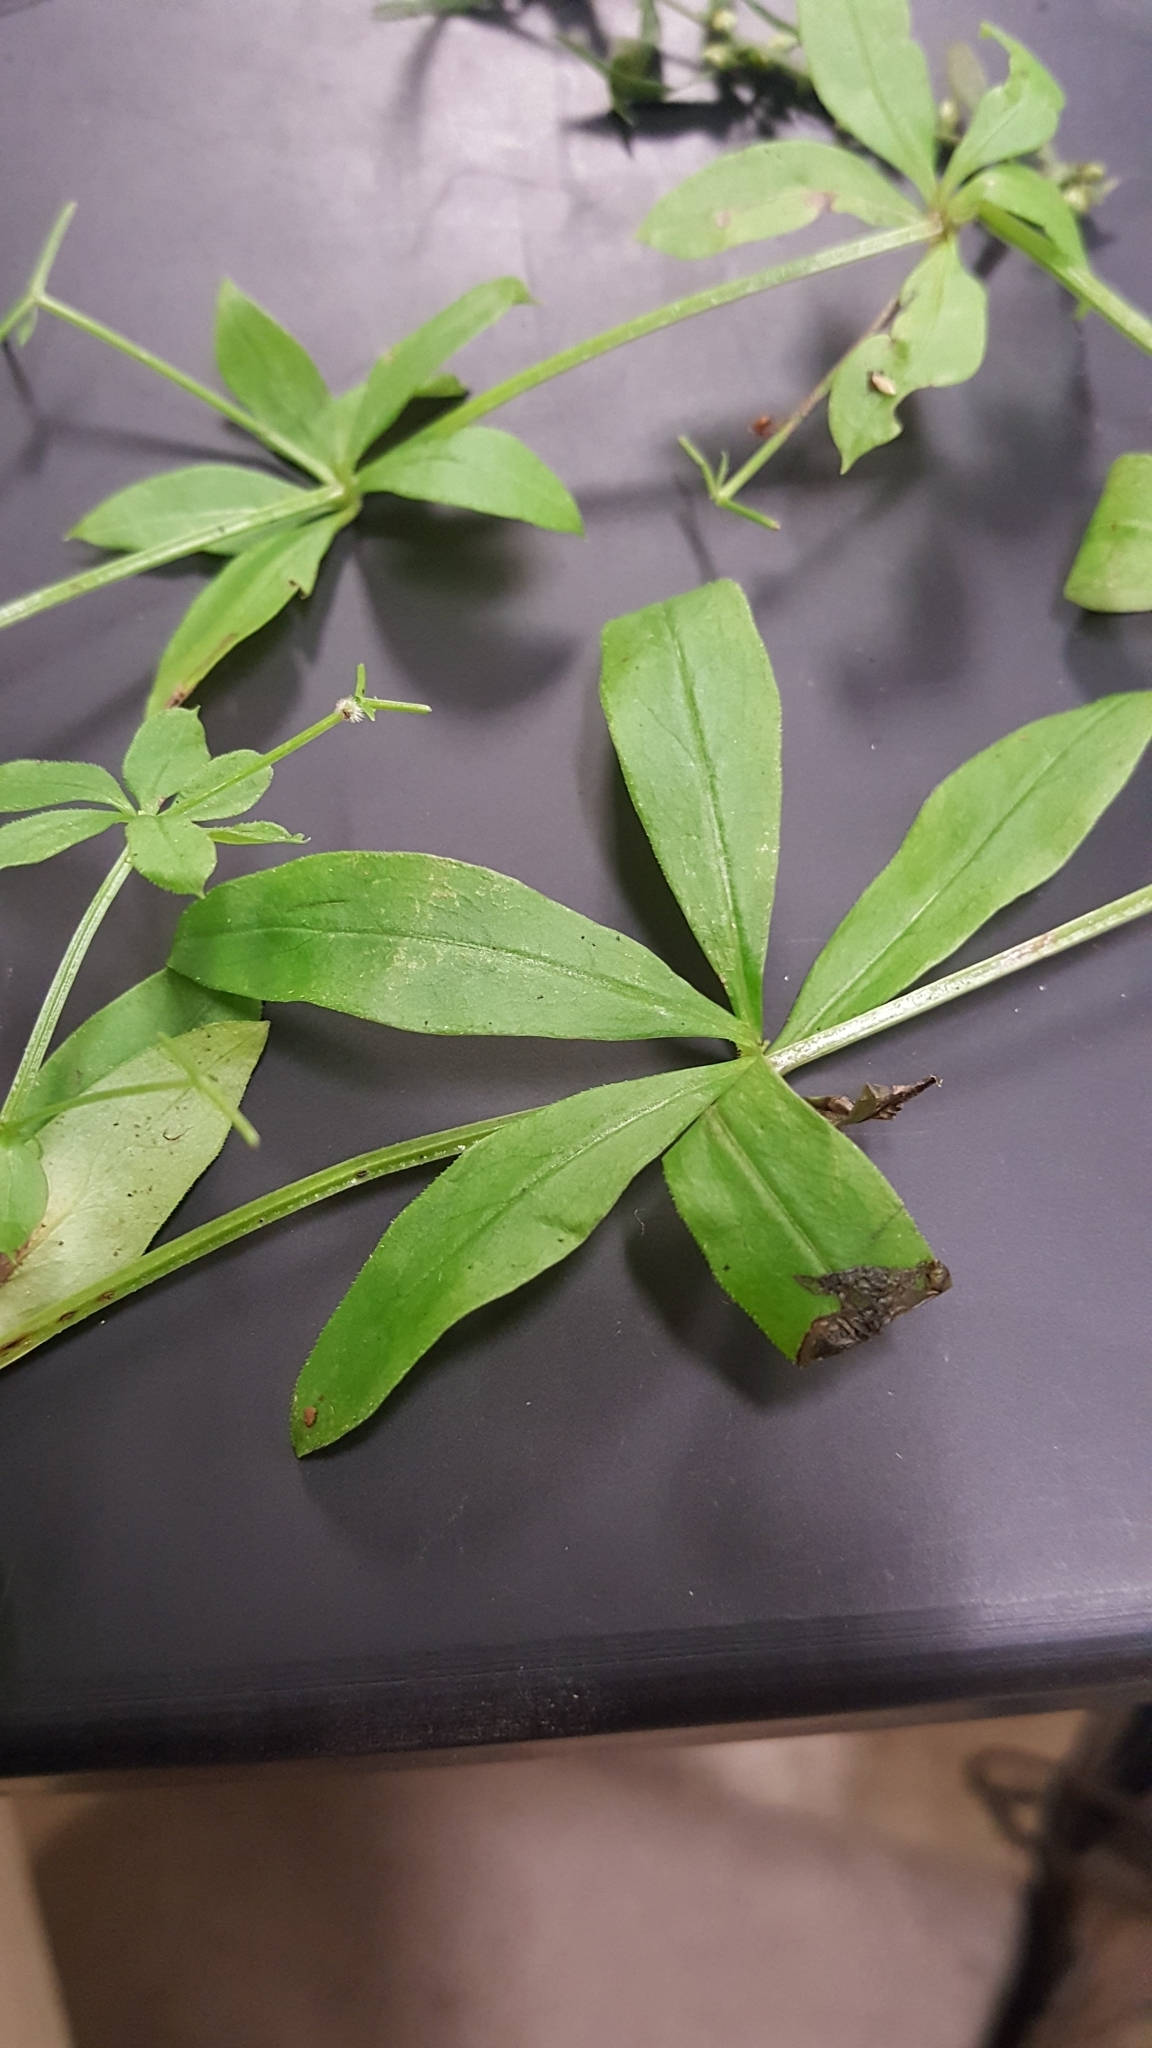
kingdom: Plantae
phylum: Tracheophyta
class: Magnoliopsida
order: Gentianales
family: Rubiaceae
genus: Galium
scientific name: Galium triflorum
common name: Fragrant bedstraw
